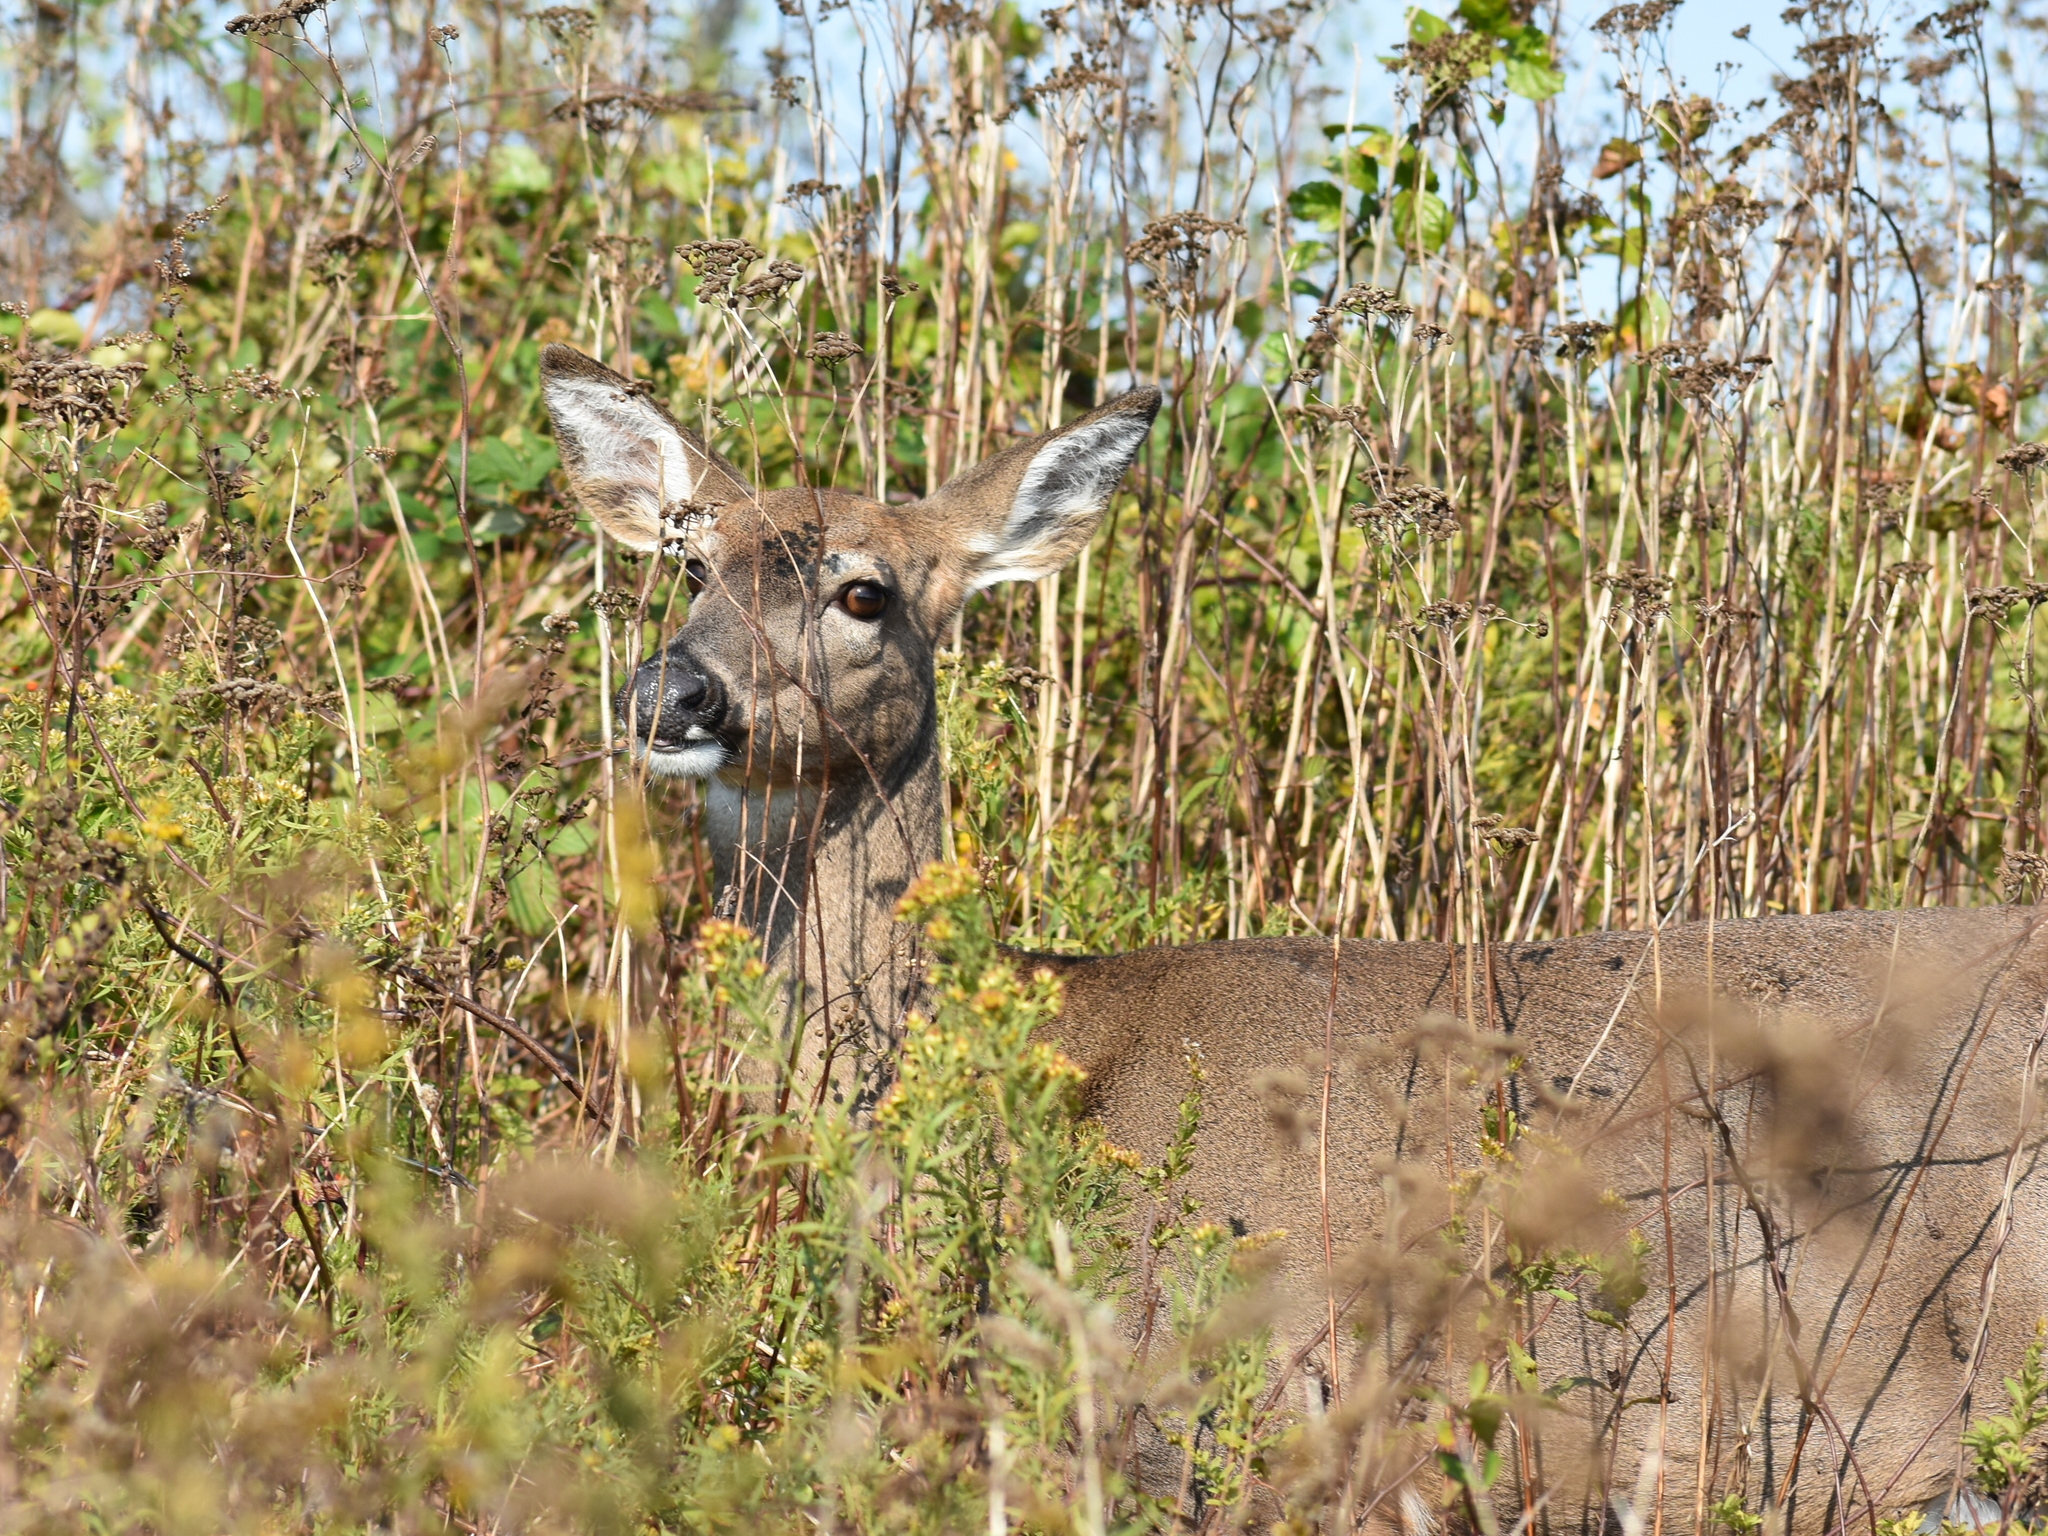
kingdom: Animalia
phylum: Chordata
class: Mammalia
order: Artiodactyla
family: Cervidae
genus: Odocoileus
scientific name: Odocoileus virginianus
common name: White-tailed deer
